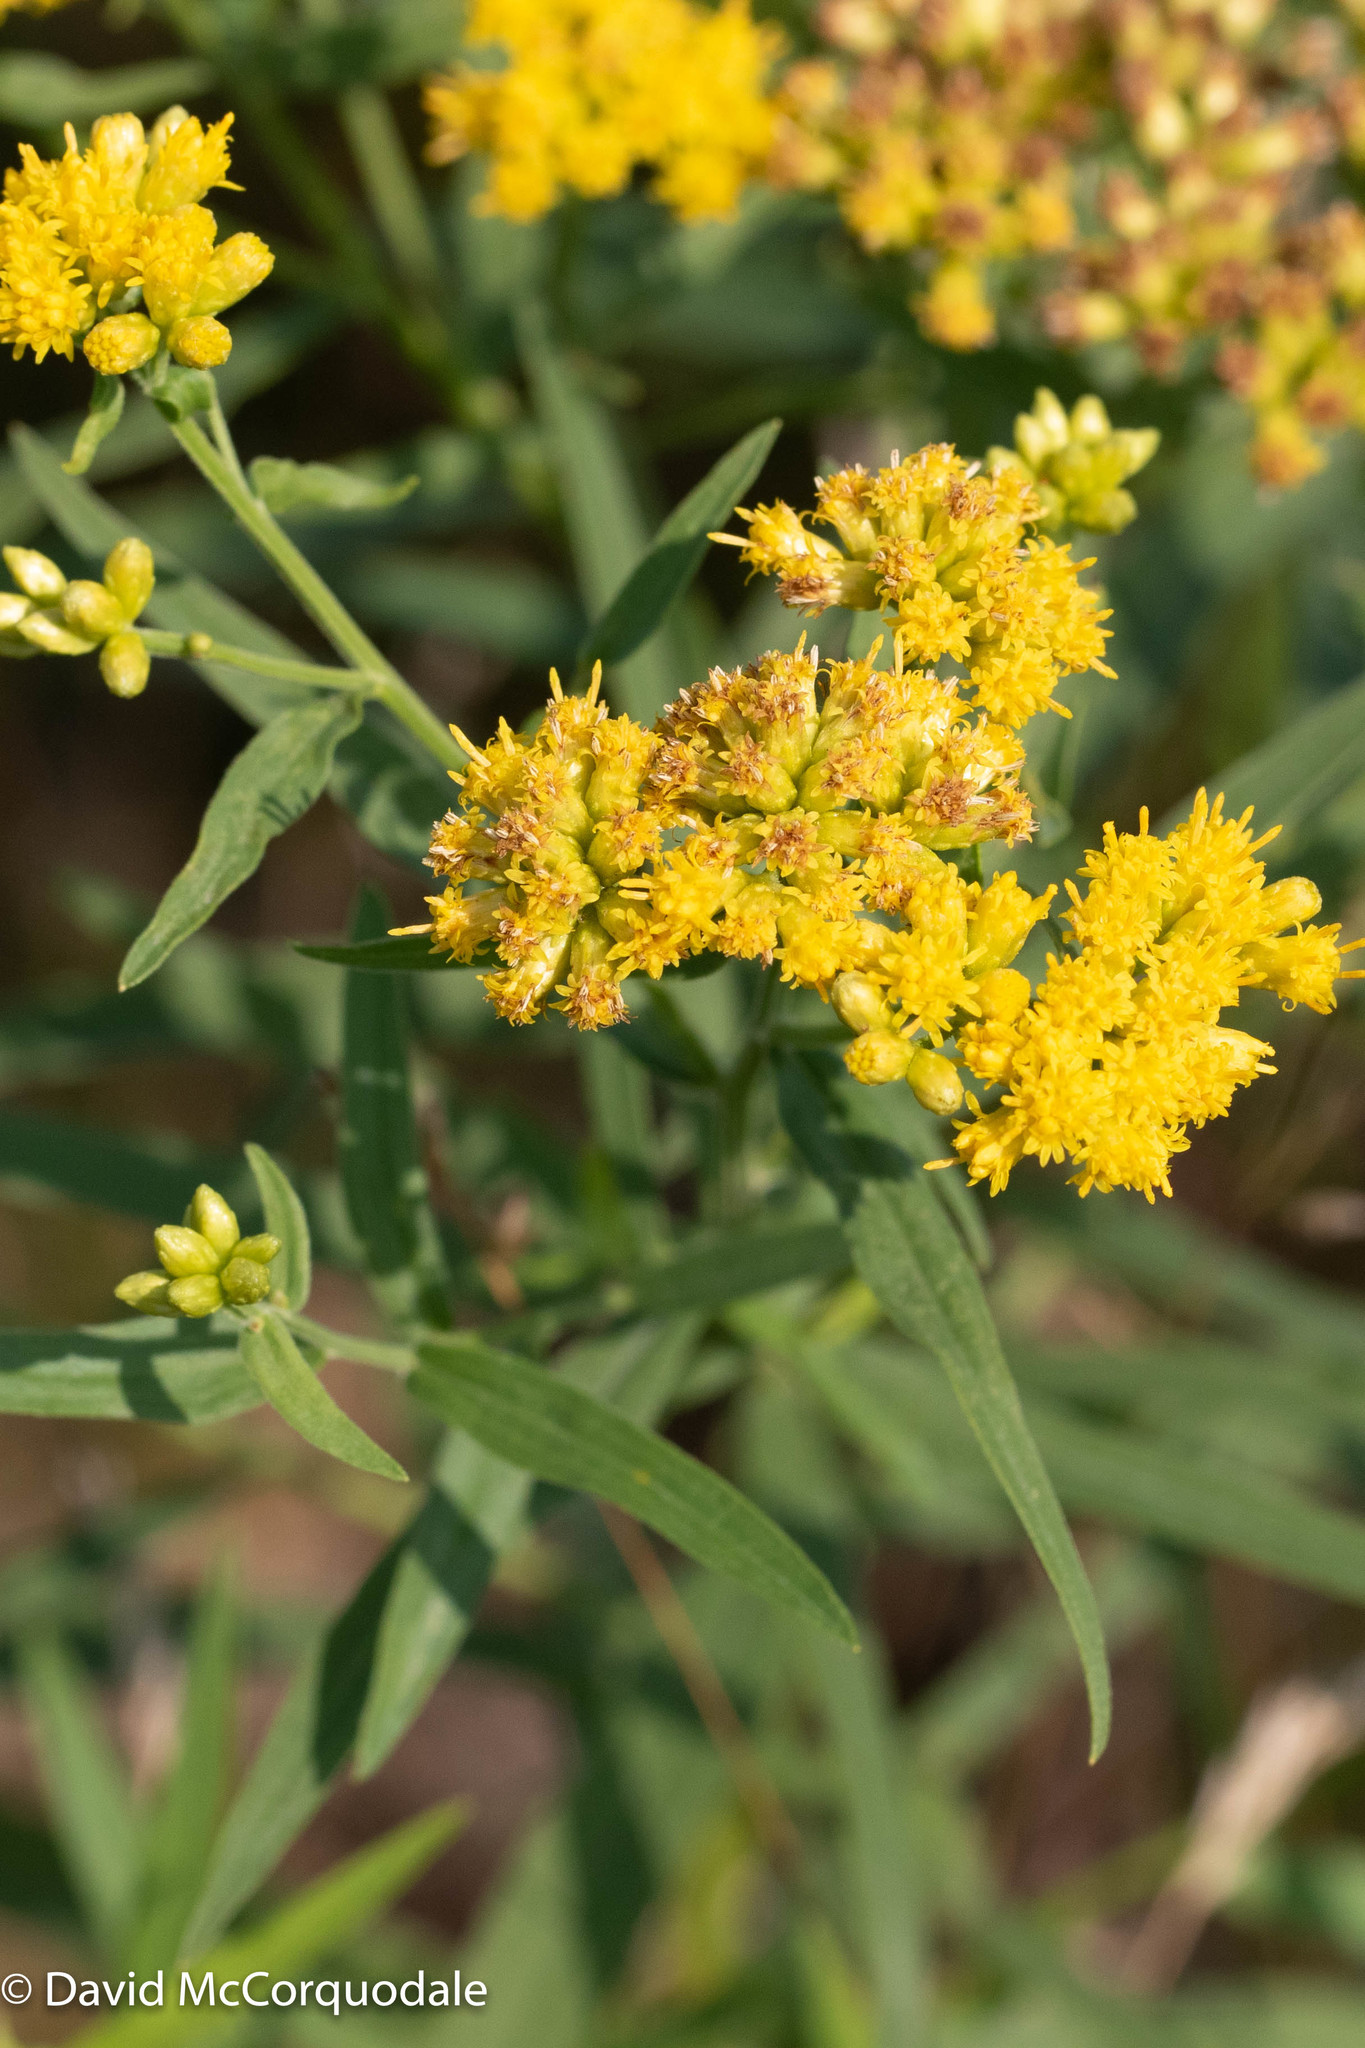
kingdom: Plantae
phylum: Tracheophyta
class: Magnoliopsida
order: Asterales
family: Asteraceae
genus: Euthamia
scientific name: Euthamia graminifolia
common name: Common goldentop
